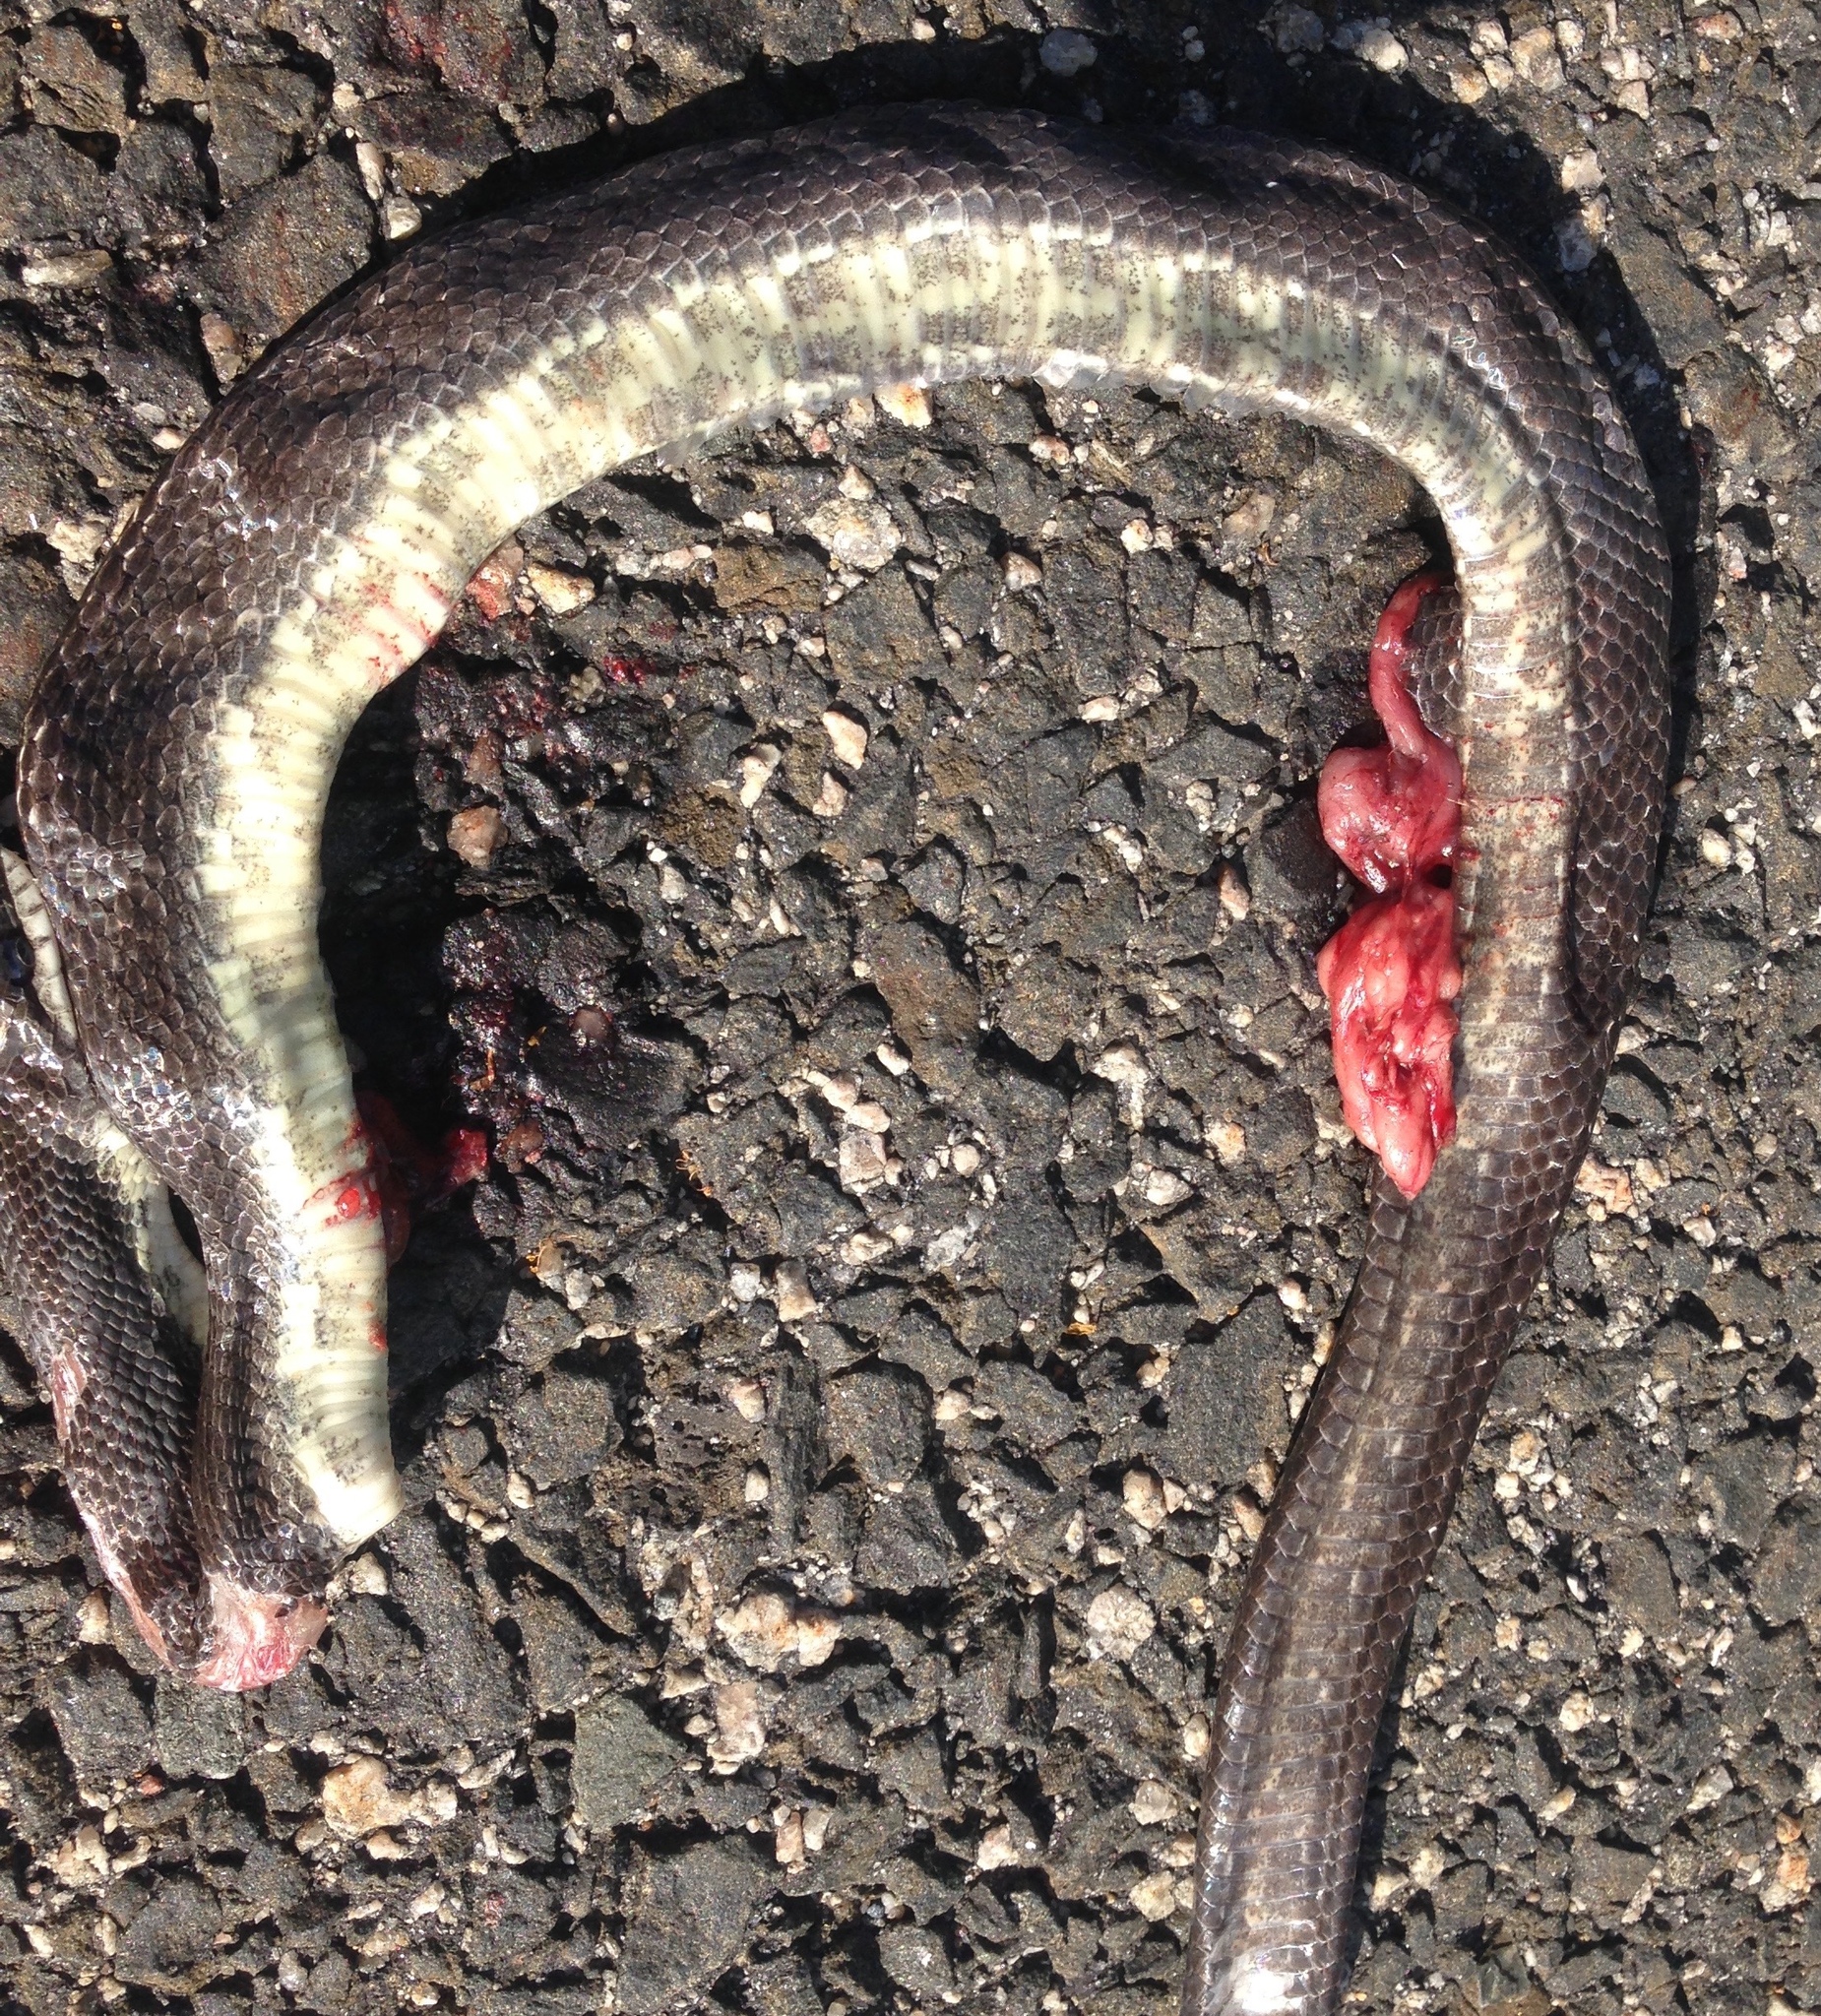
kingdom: Animalia
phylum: Chordata
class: Squamata
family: Colubridae
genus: Pantherophis
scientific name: Pantherophis alleghaniensis
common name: Eastern rat snake
